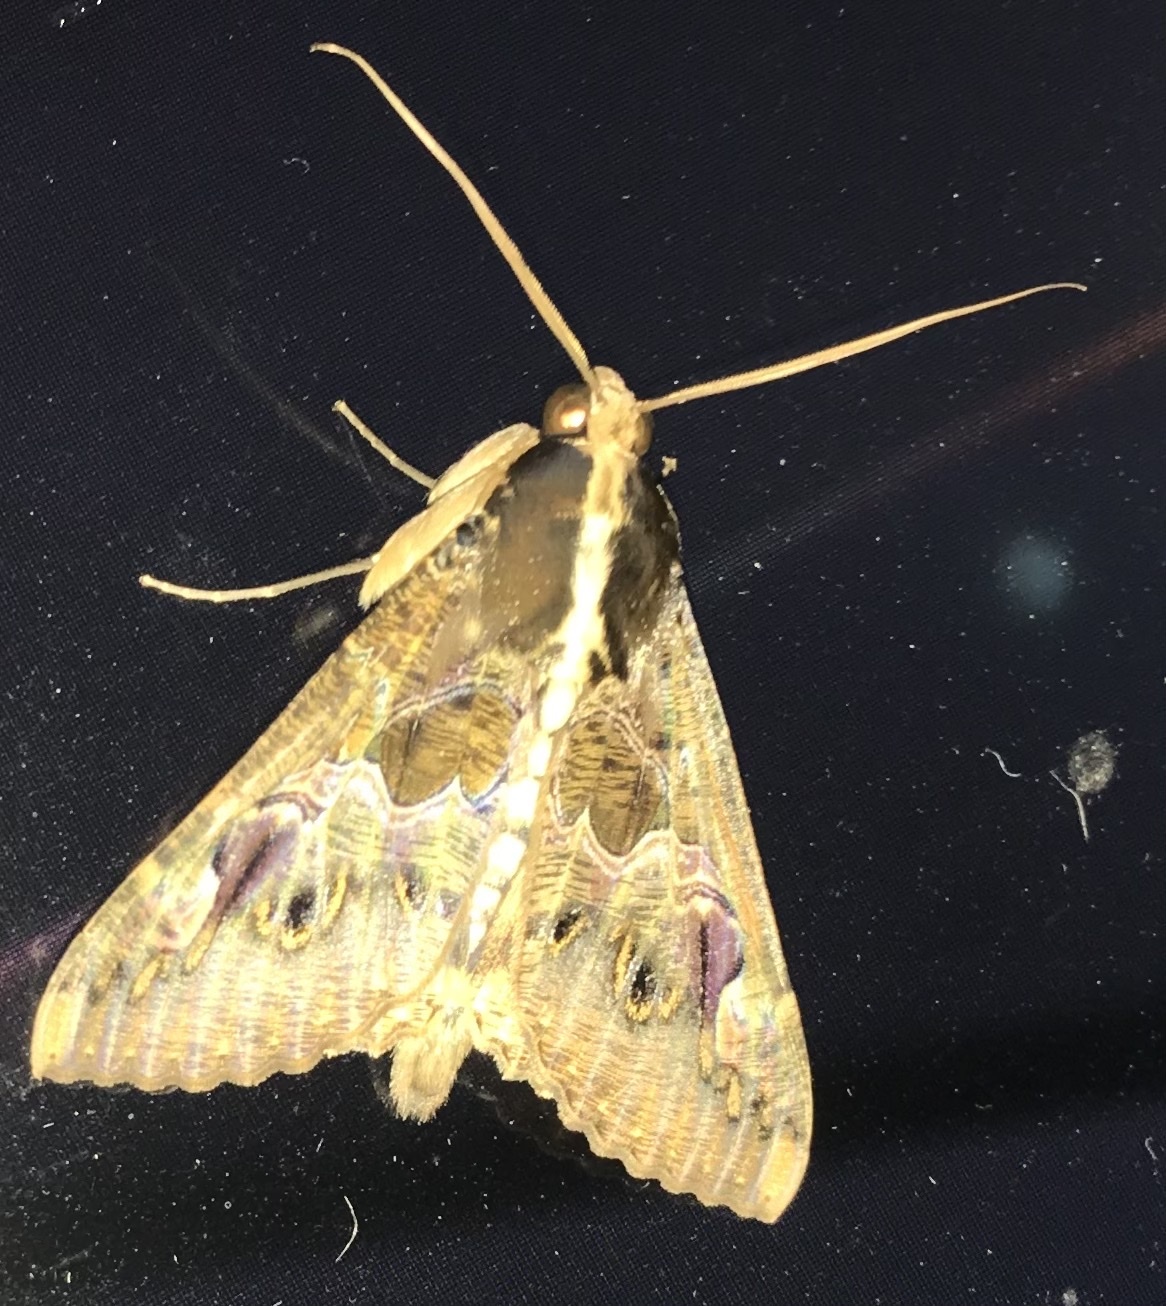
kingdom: Animalia
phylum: Arthropoda
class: Insecta
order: Lepidoptera
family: Erebidae
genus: Sphingomorpha
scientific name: Sphingomorpha chlorea
